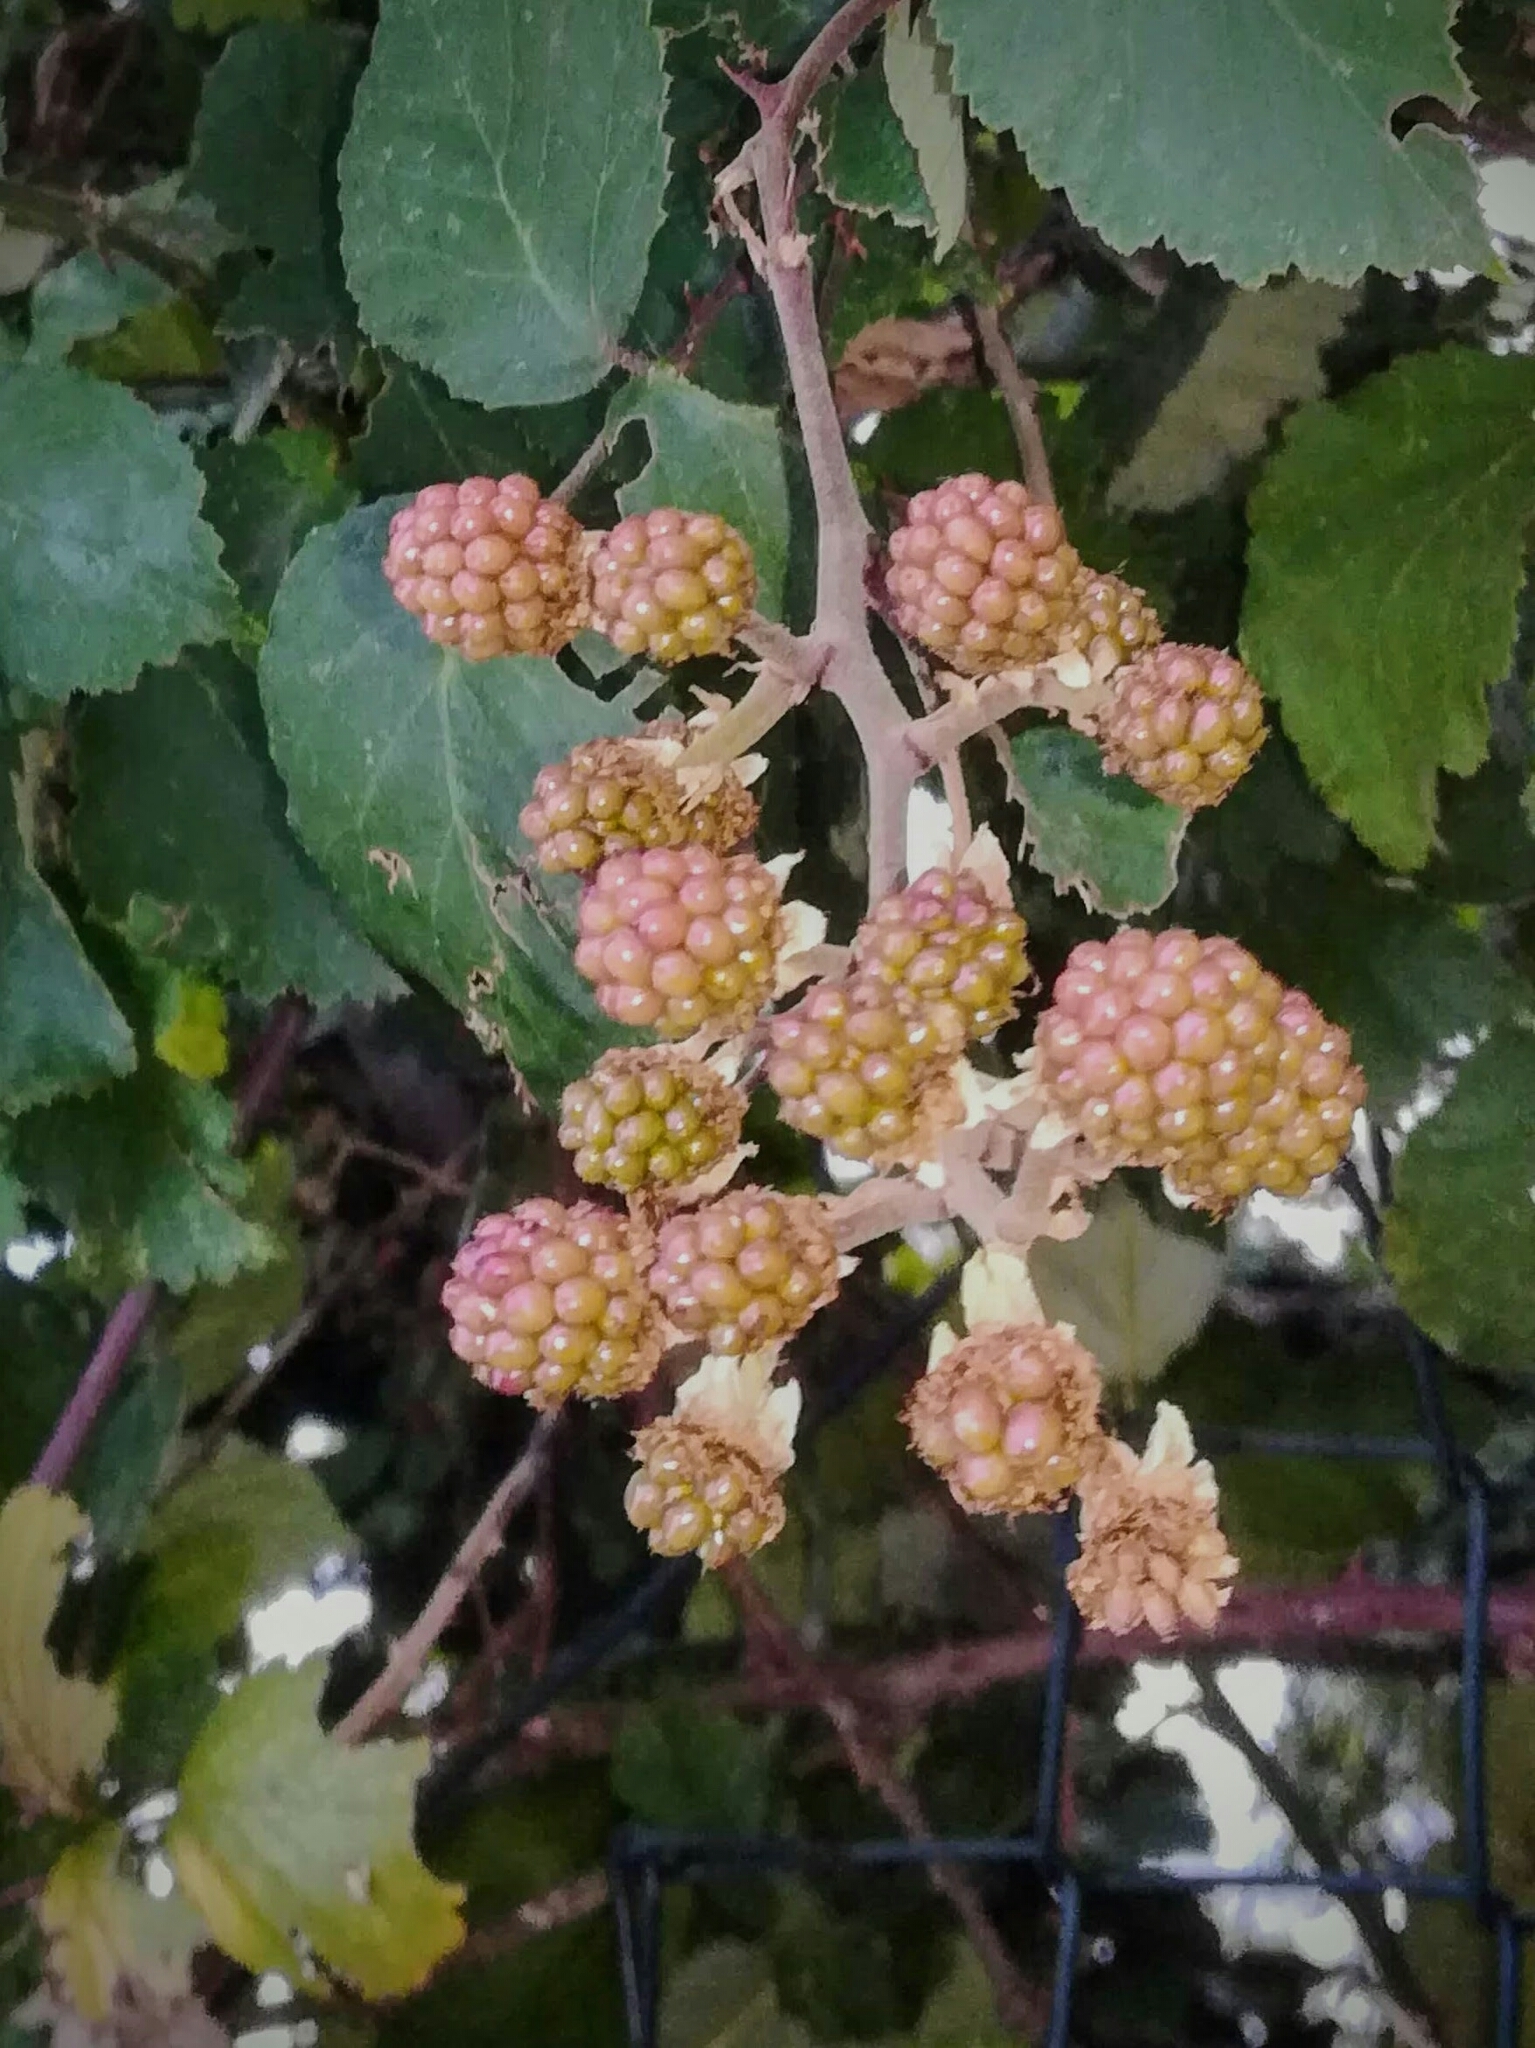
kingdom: Plantae
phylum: Tracheophyta
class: Magnoliopsida
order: Rosales
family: Rosaceae
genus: Rubus
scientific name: Rubus ulmifolius
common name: Elmleaf blackberry
